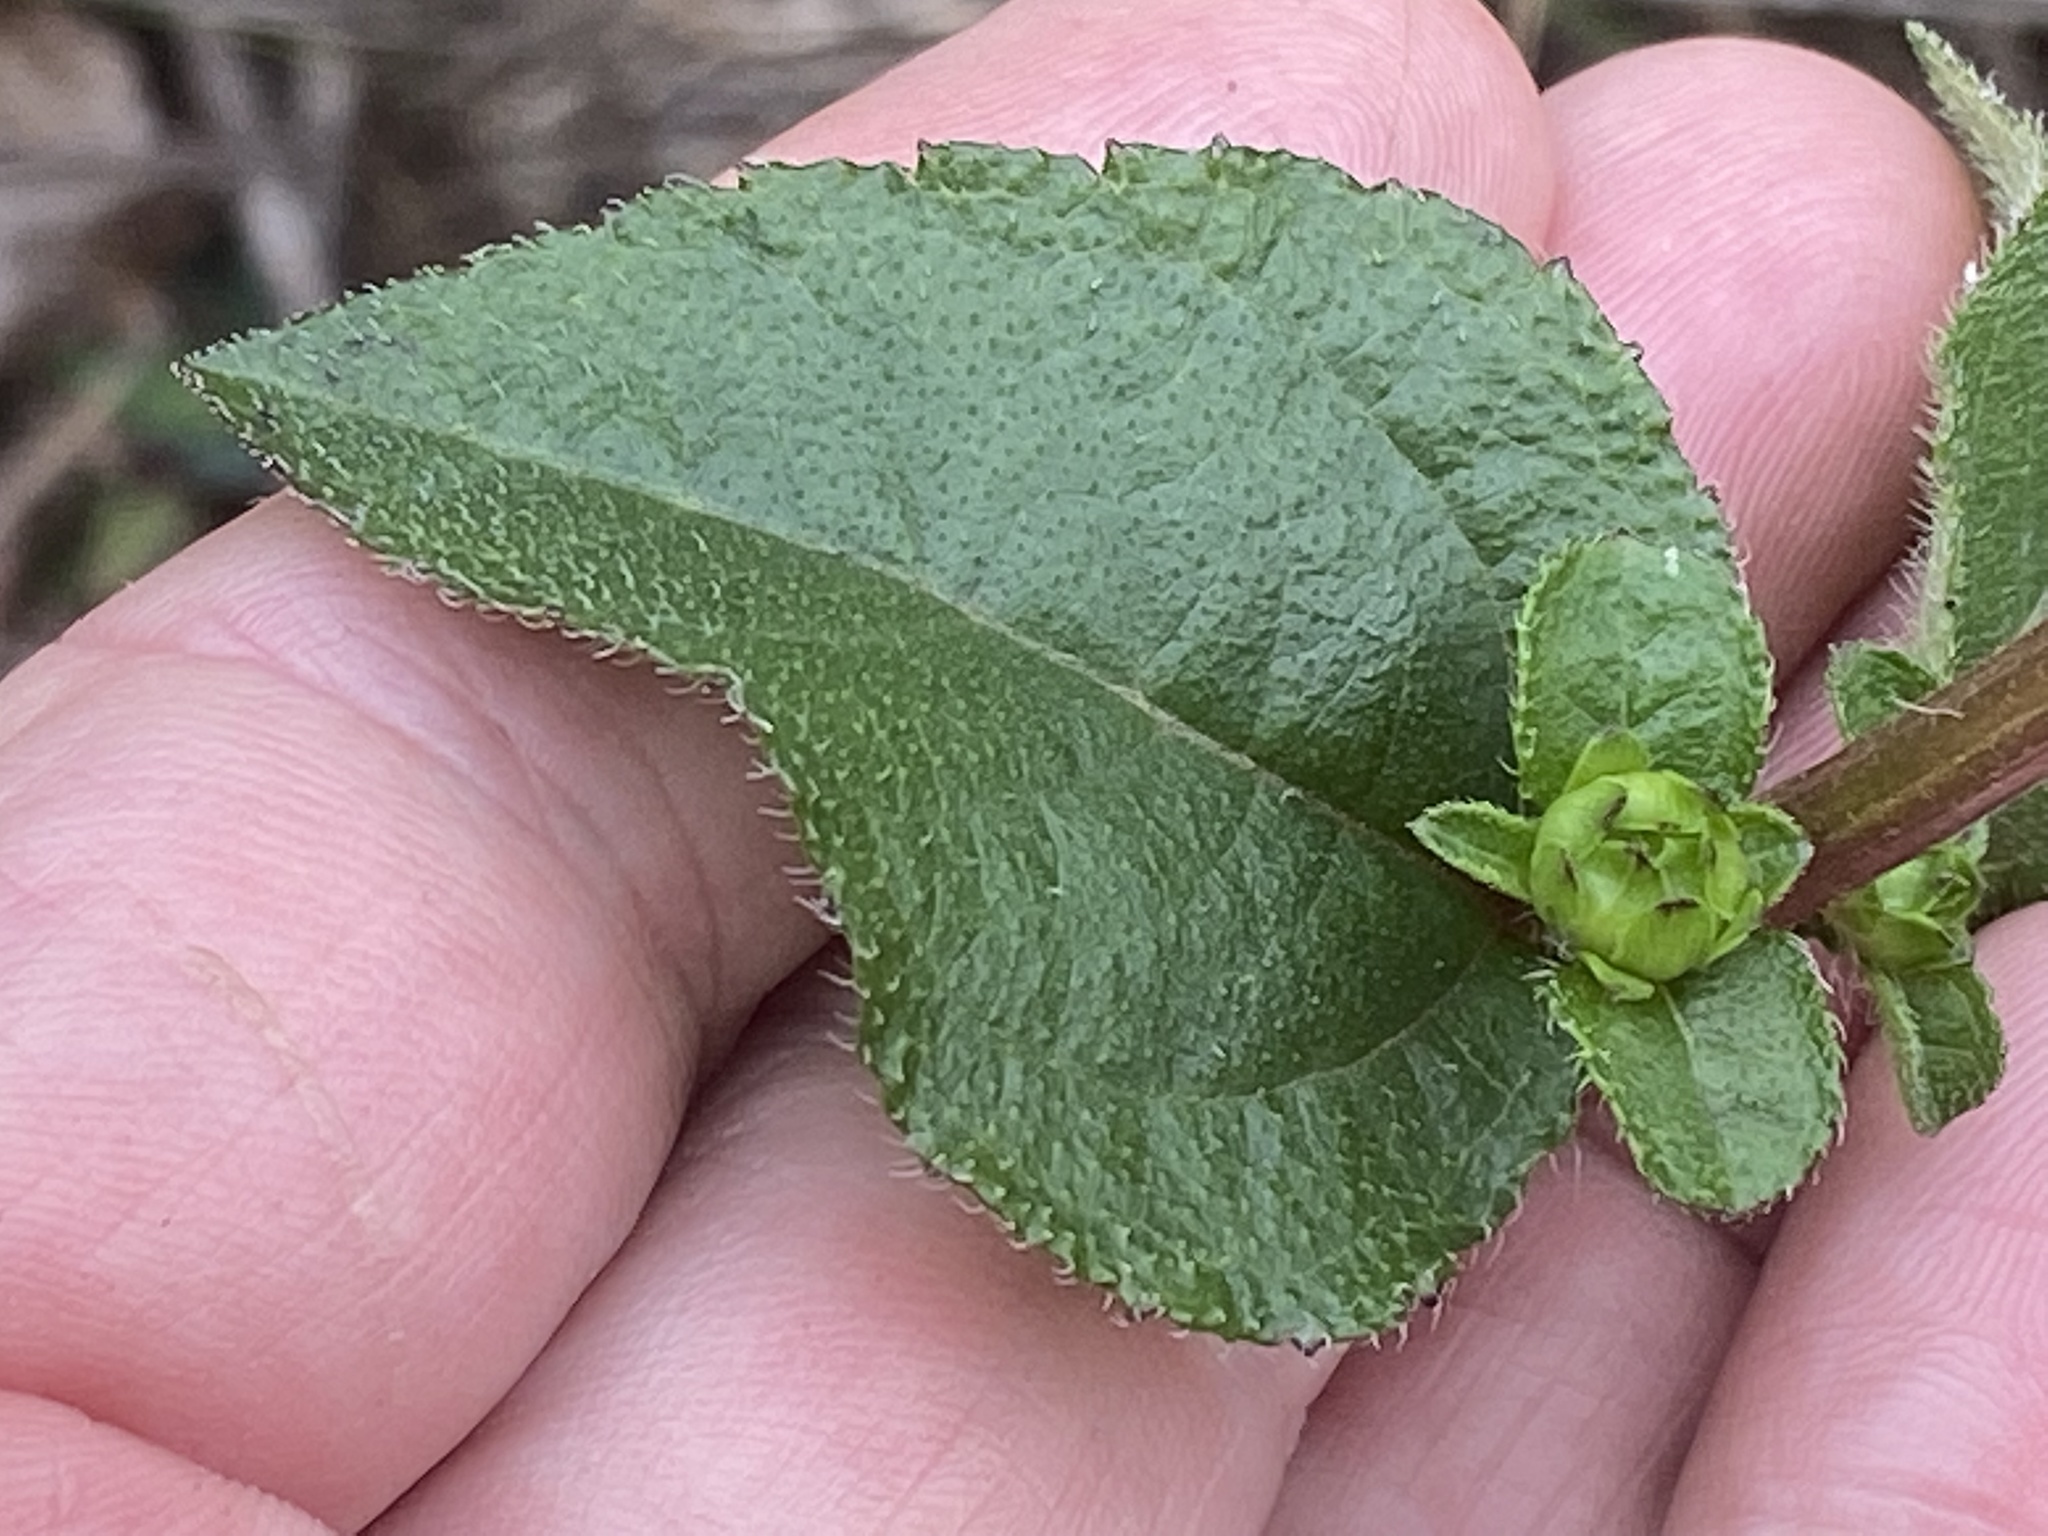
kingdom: Plantae
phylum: Tracheophyta
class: Magnoliopsida
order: Asterales
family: Asteraceae
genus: Helianthus
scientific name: Helianthus atrorubens
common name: Dark-eyed sunflower
